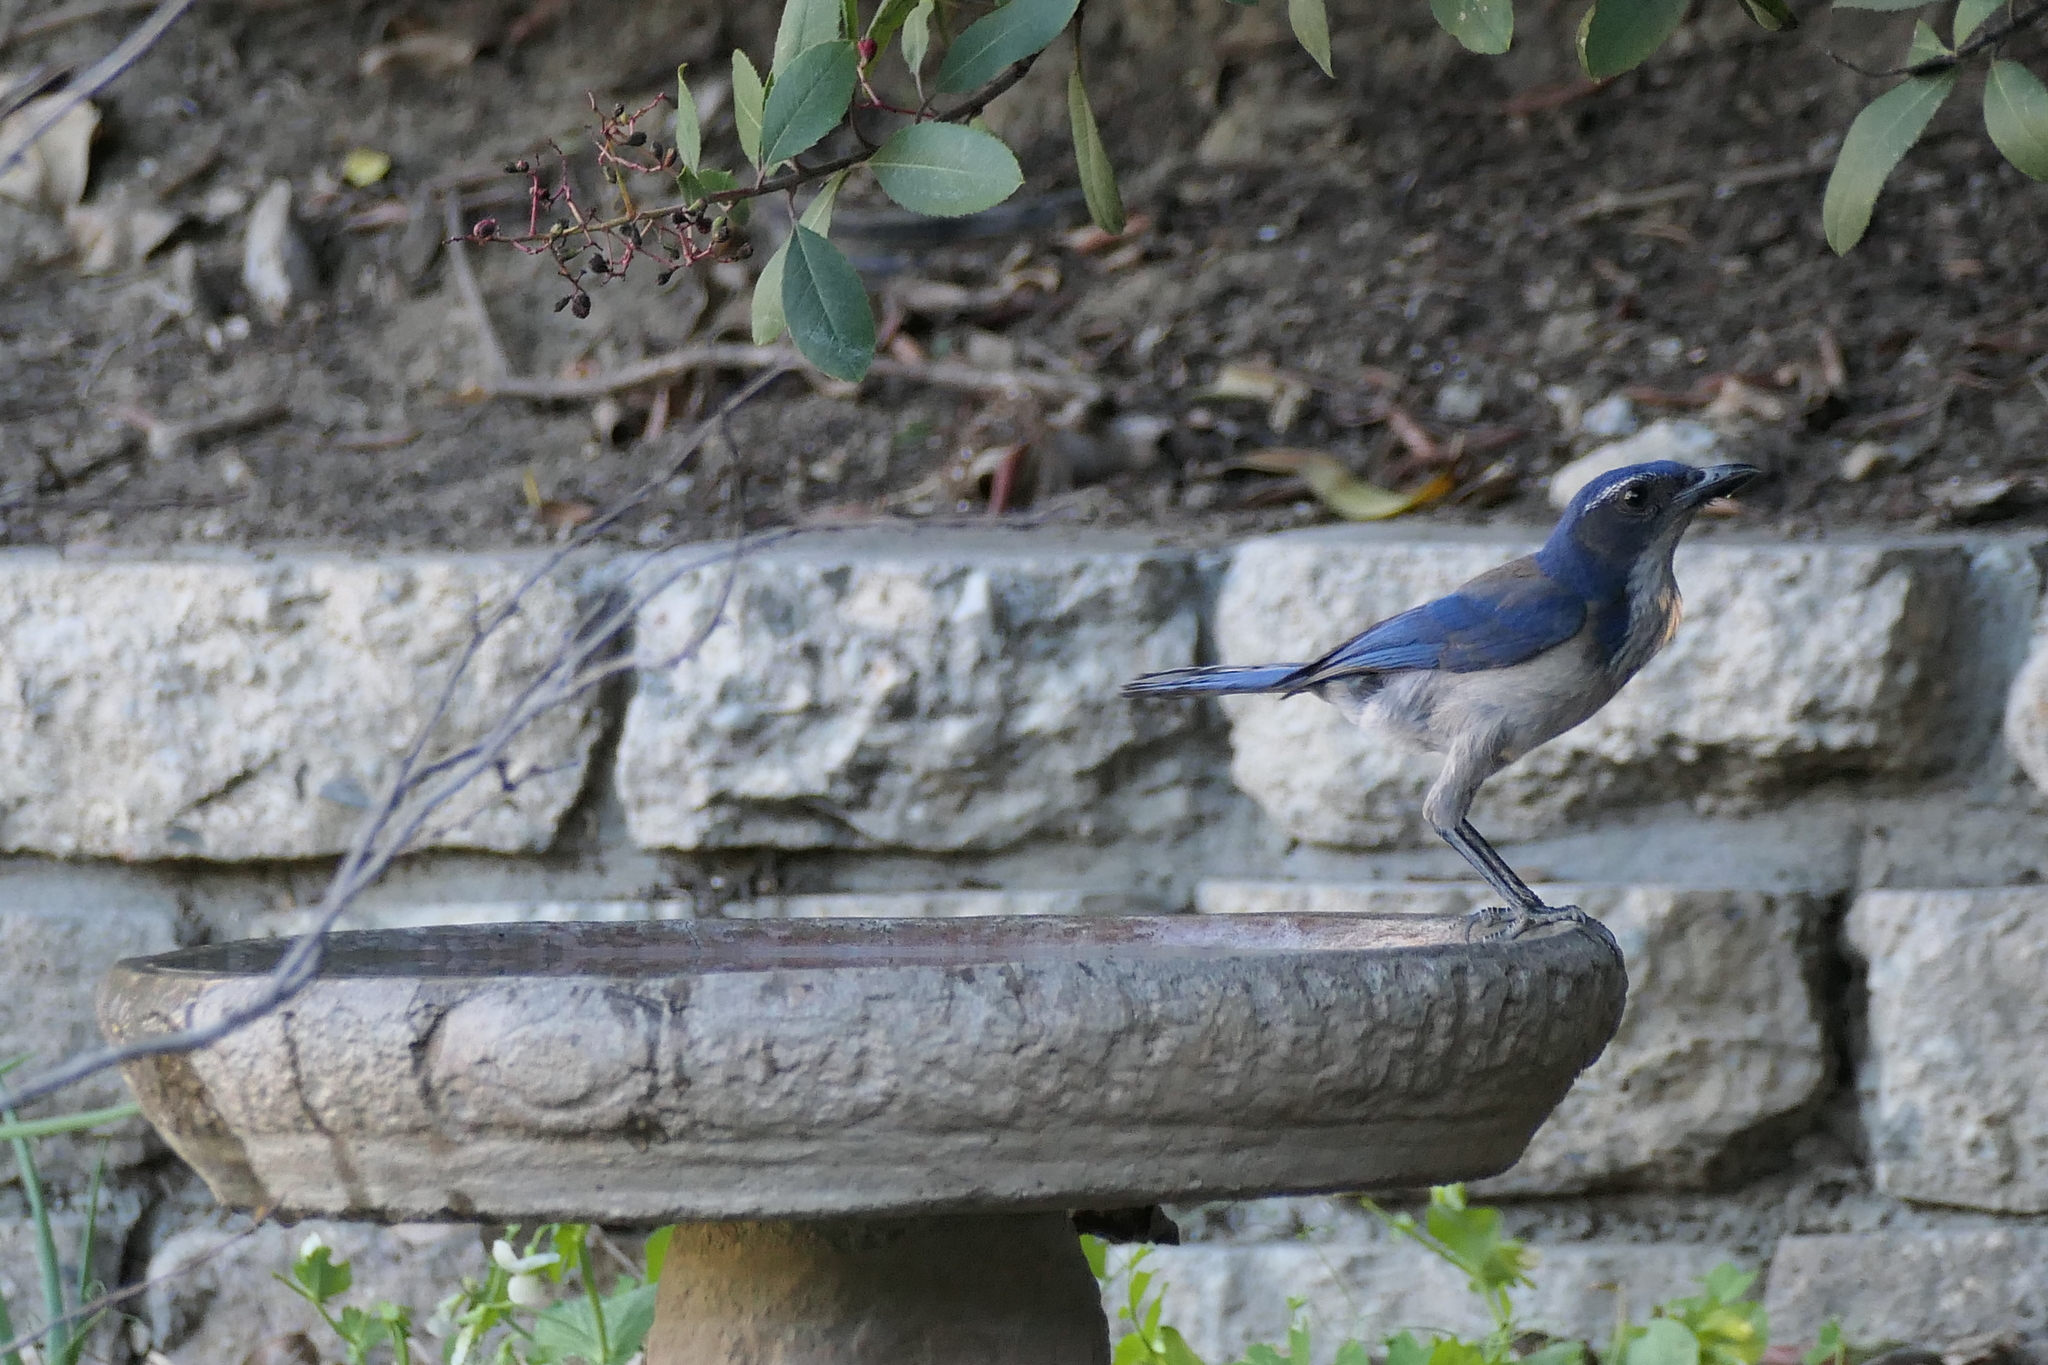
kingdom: Animalia
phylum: Chordata
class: Aves
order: Passeriformes
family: Corvidae
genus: Aphelocoma
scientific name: Aphelocoma californica
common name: California scrub-jay
